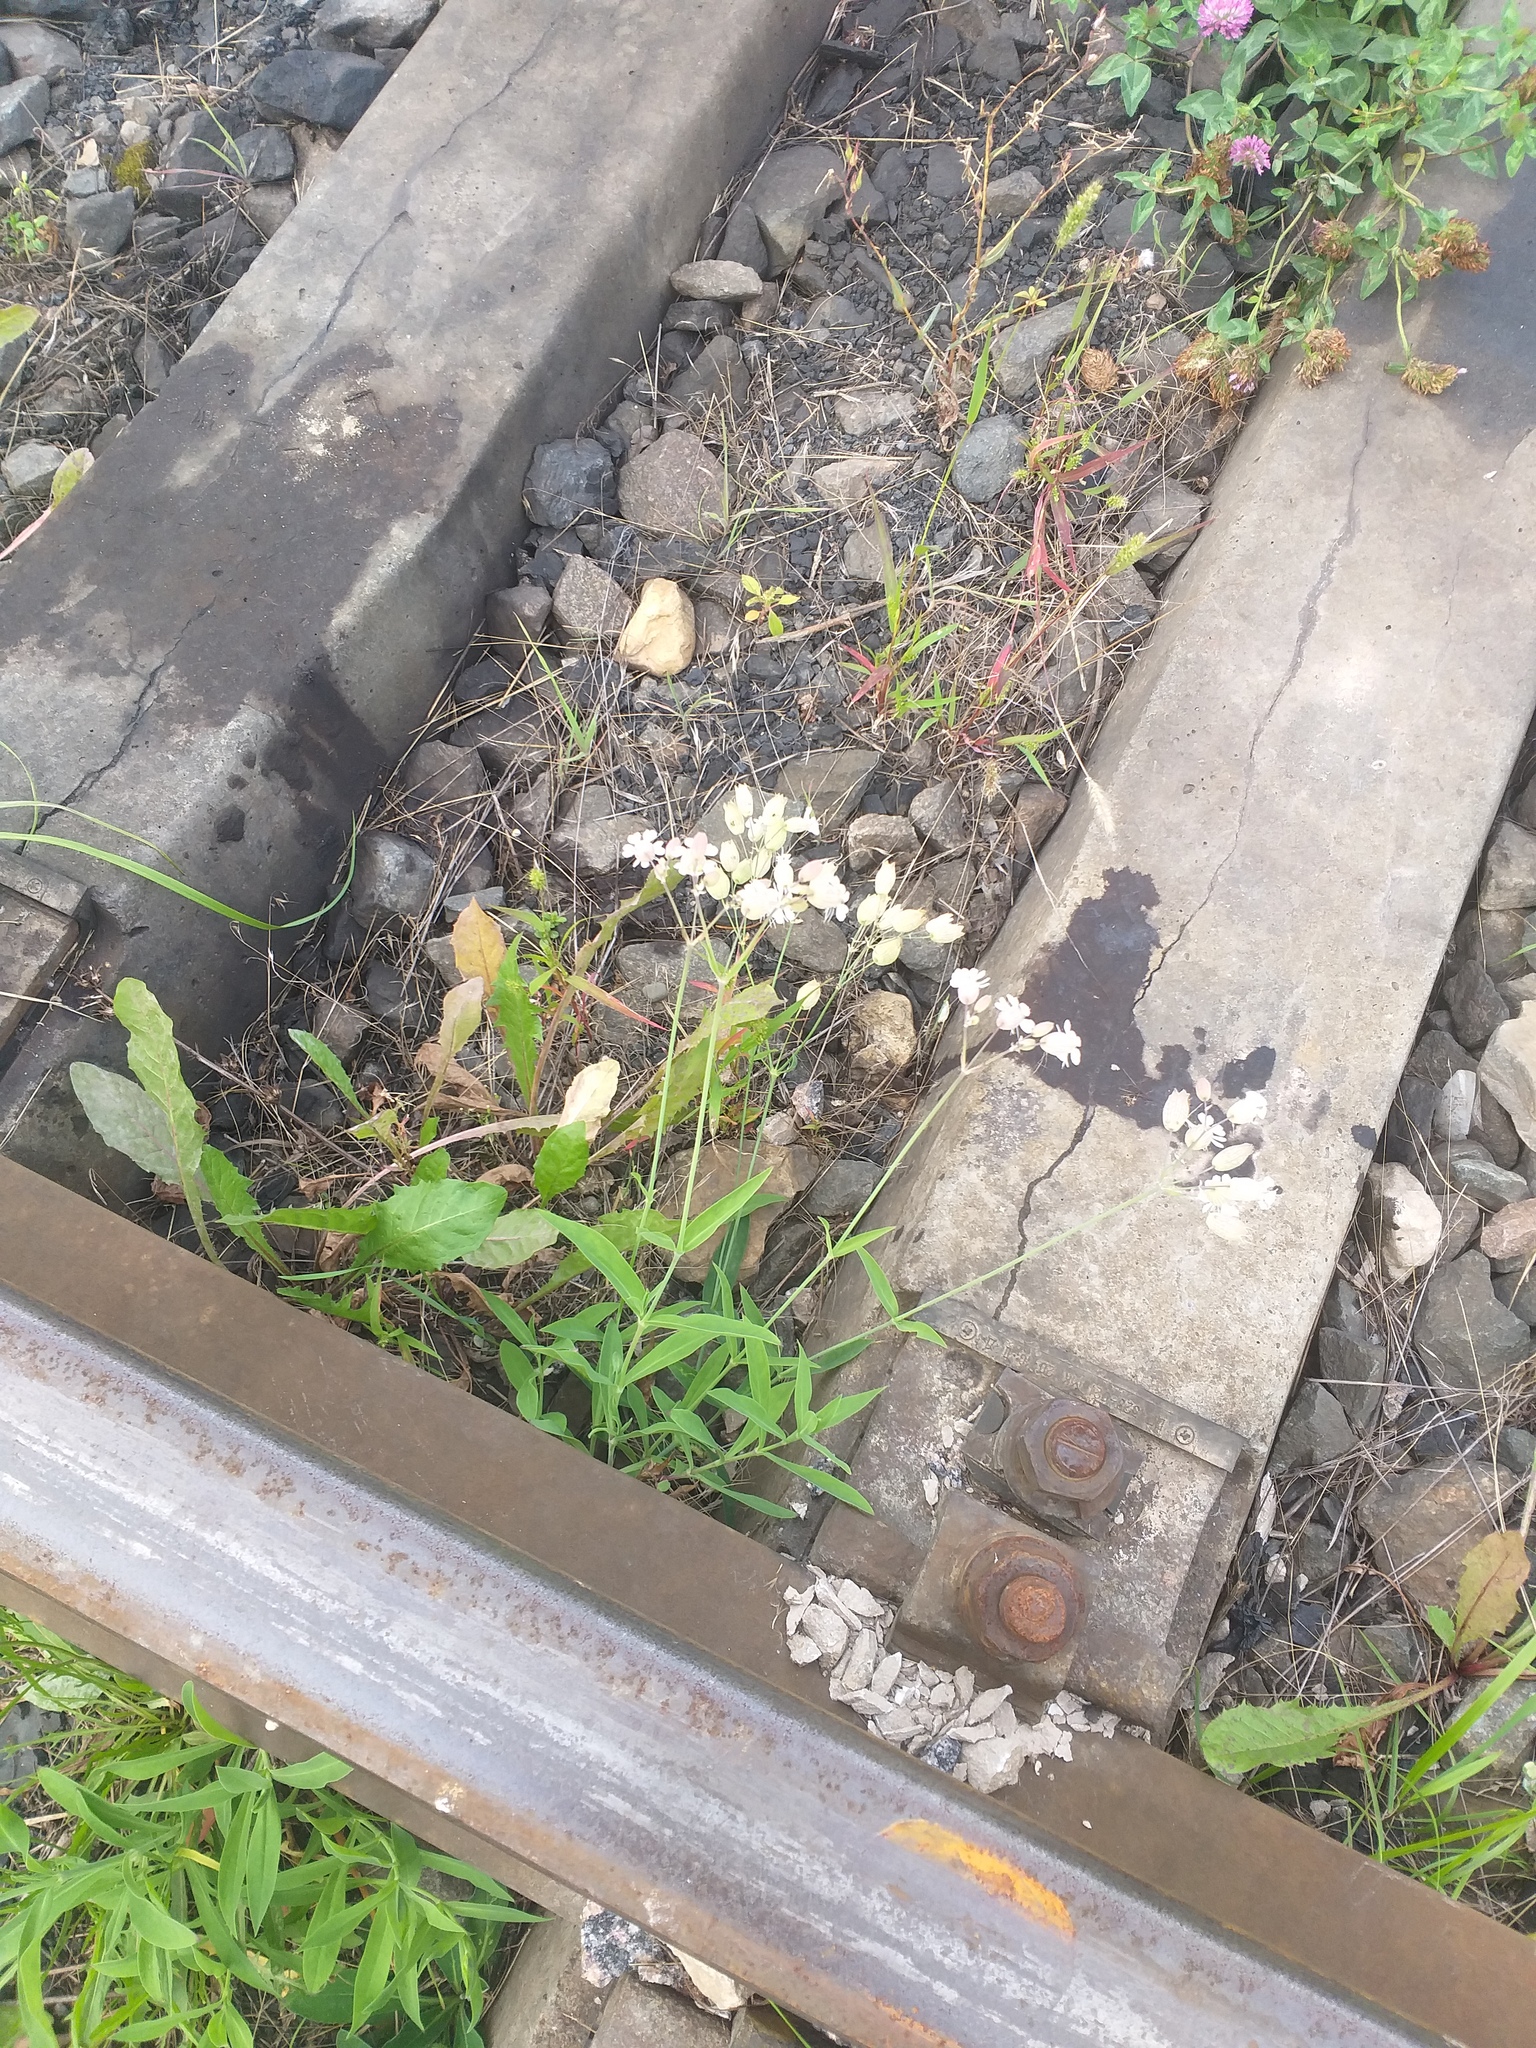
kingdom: Plantae
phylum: Tracheophyta
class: Magnoliopsida
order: Caryophyllales
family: Caryophyllaceae
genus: Silene
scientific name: Silene vulgaris
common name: Bladder campion
